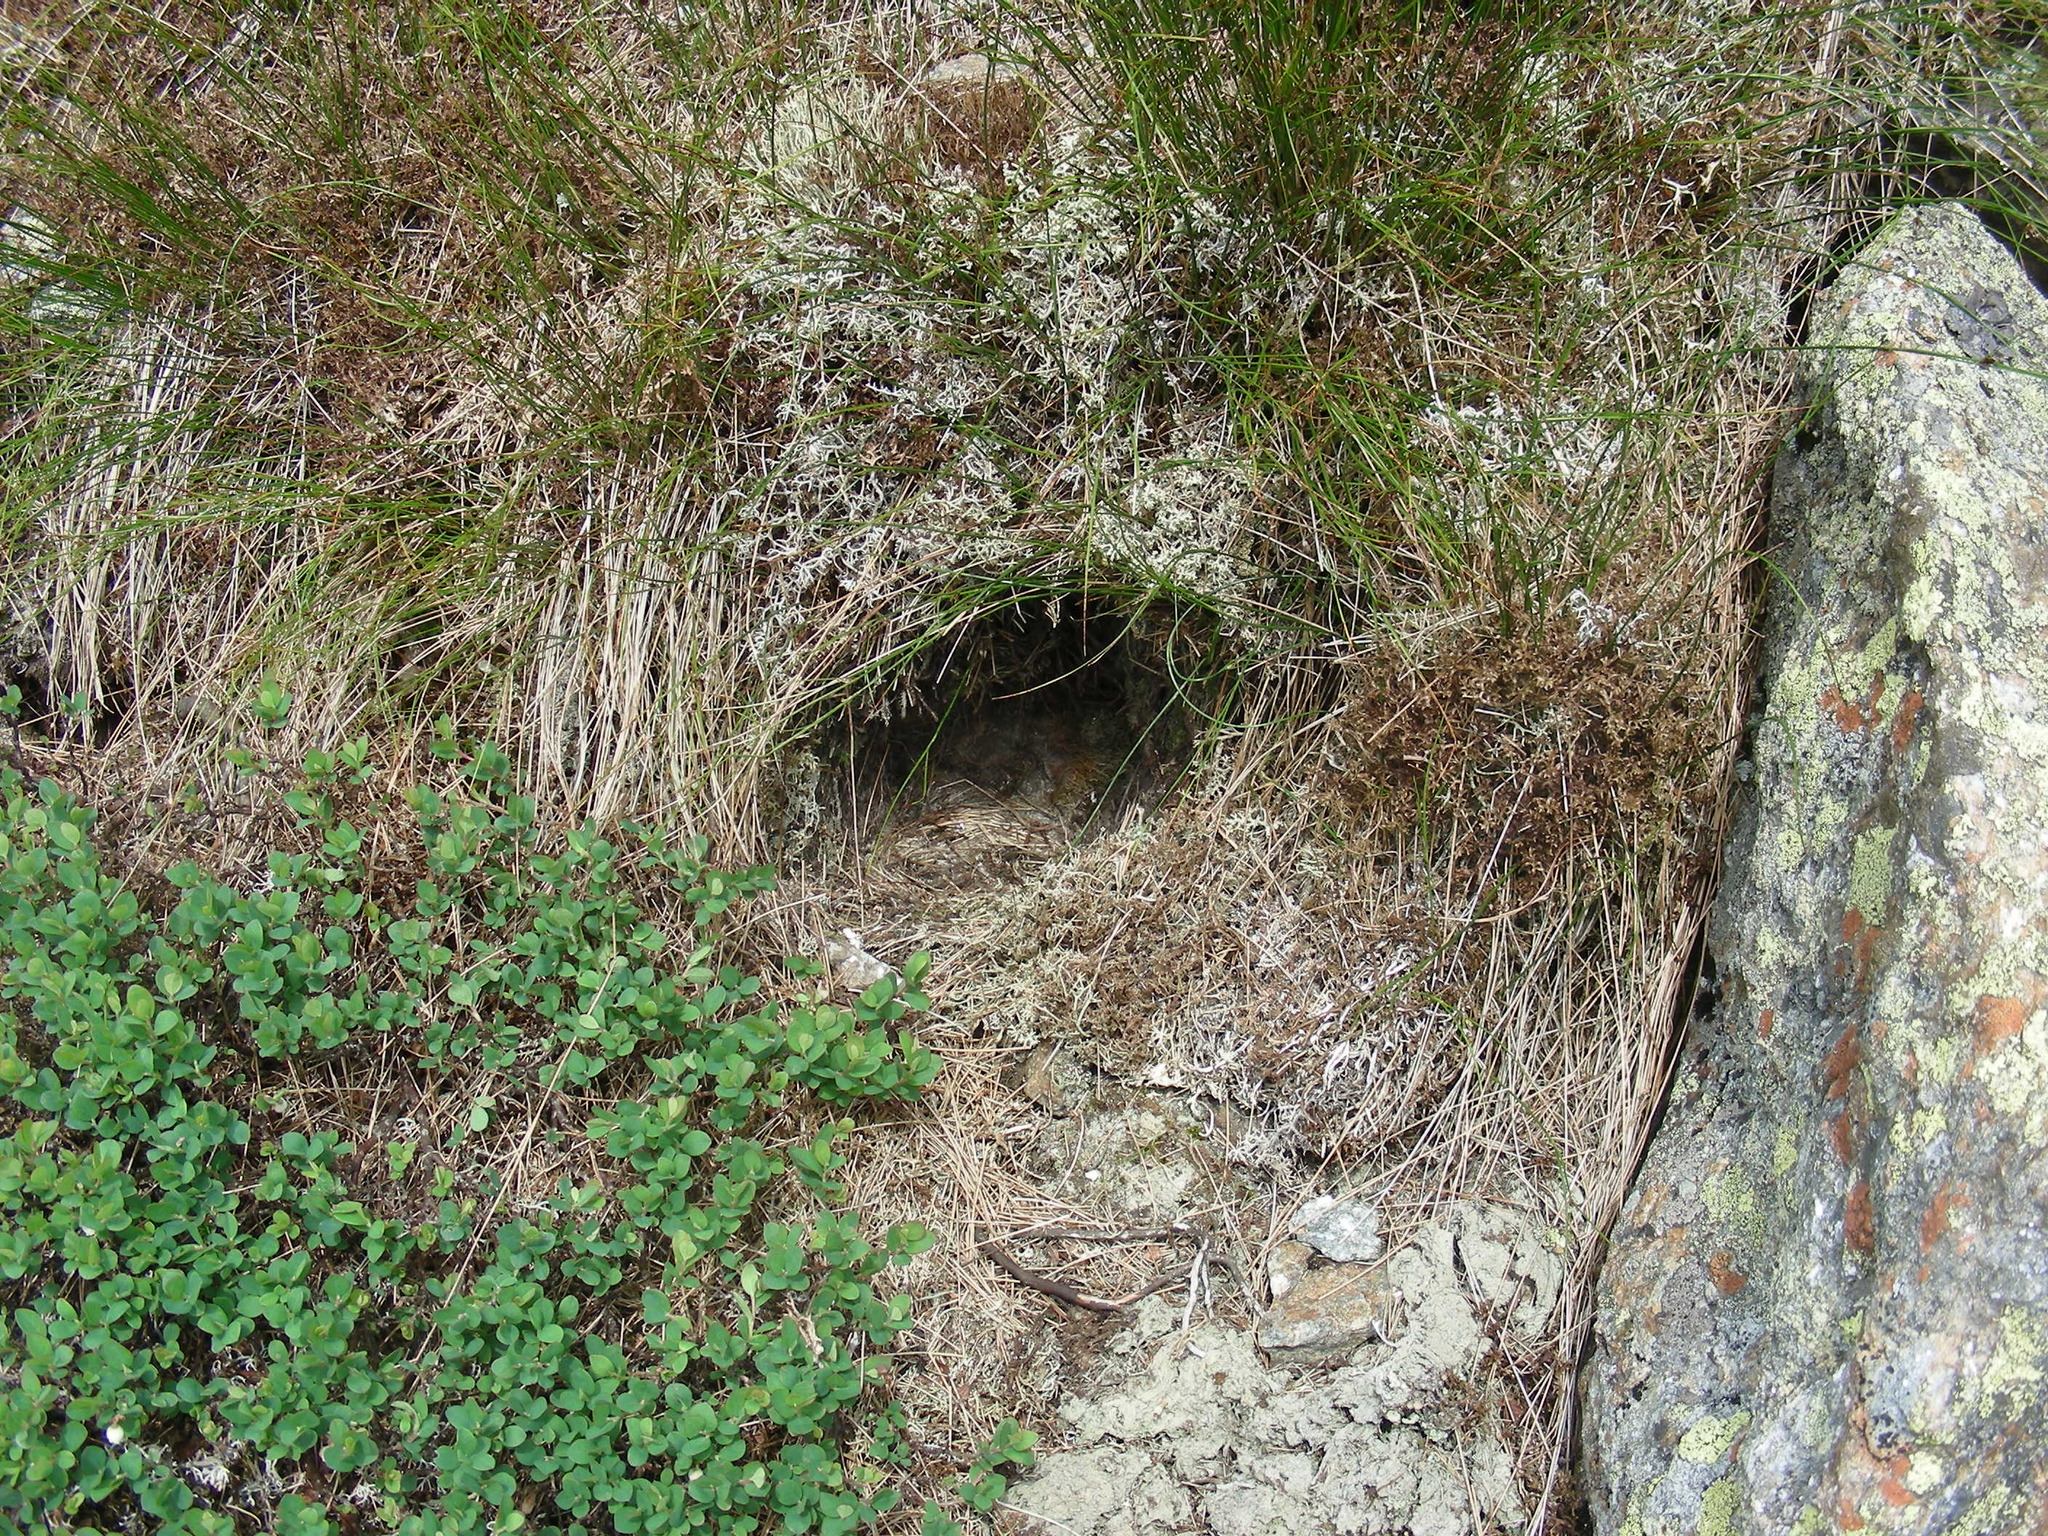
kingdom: Animalia
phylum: Chordata
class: Aves
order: Passeriformes
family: Motacillidae
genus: Anthus
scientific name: Anthus rubescens
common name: Buff-bellied pipit
